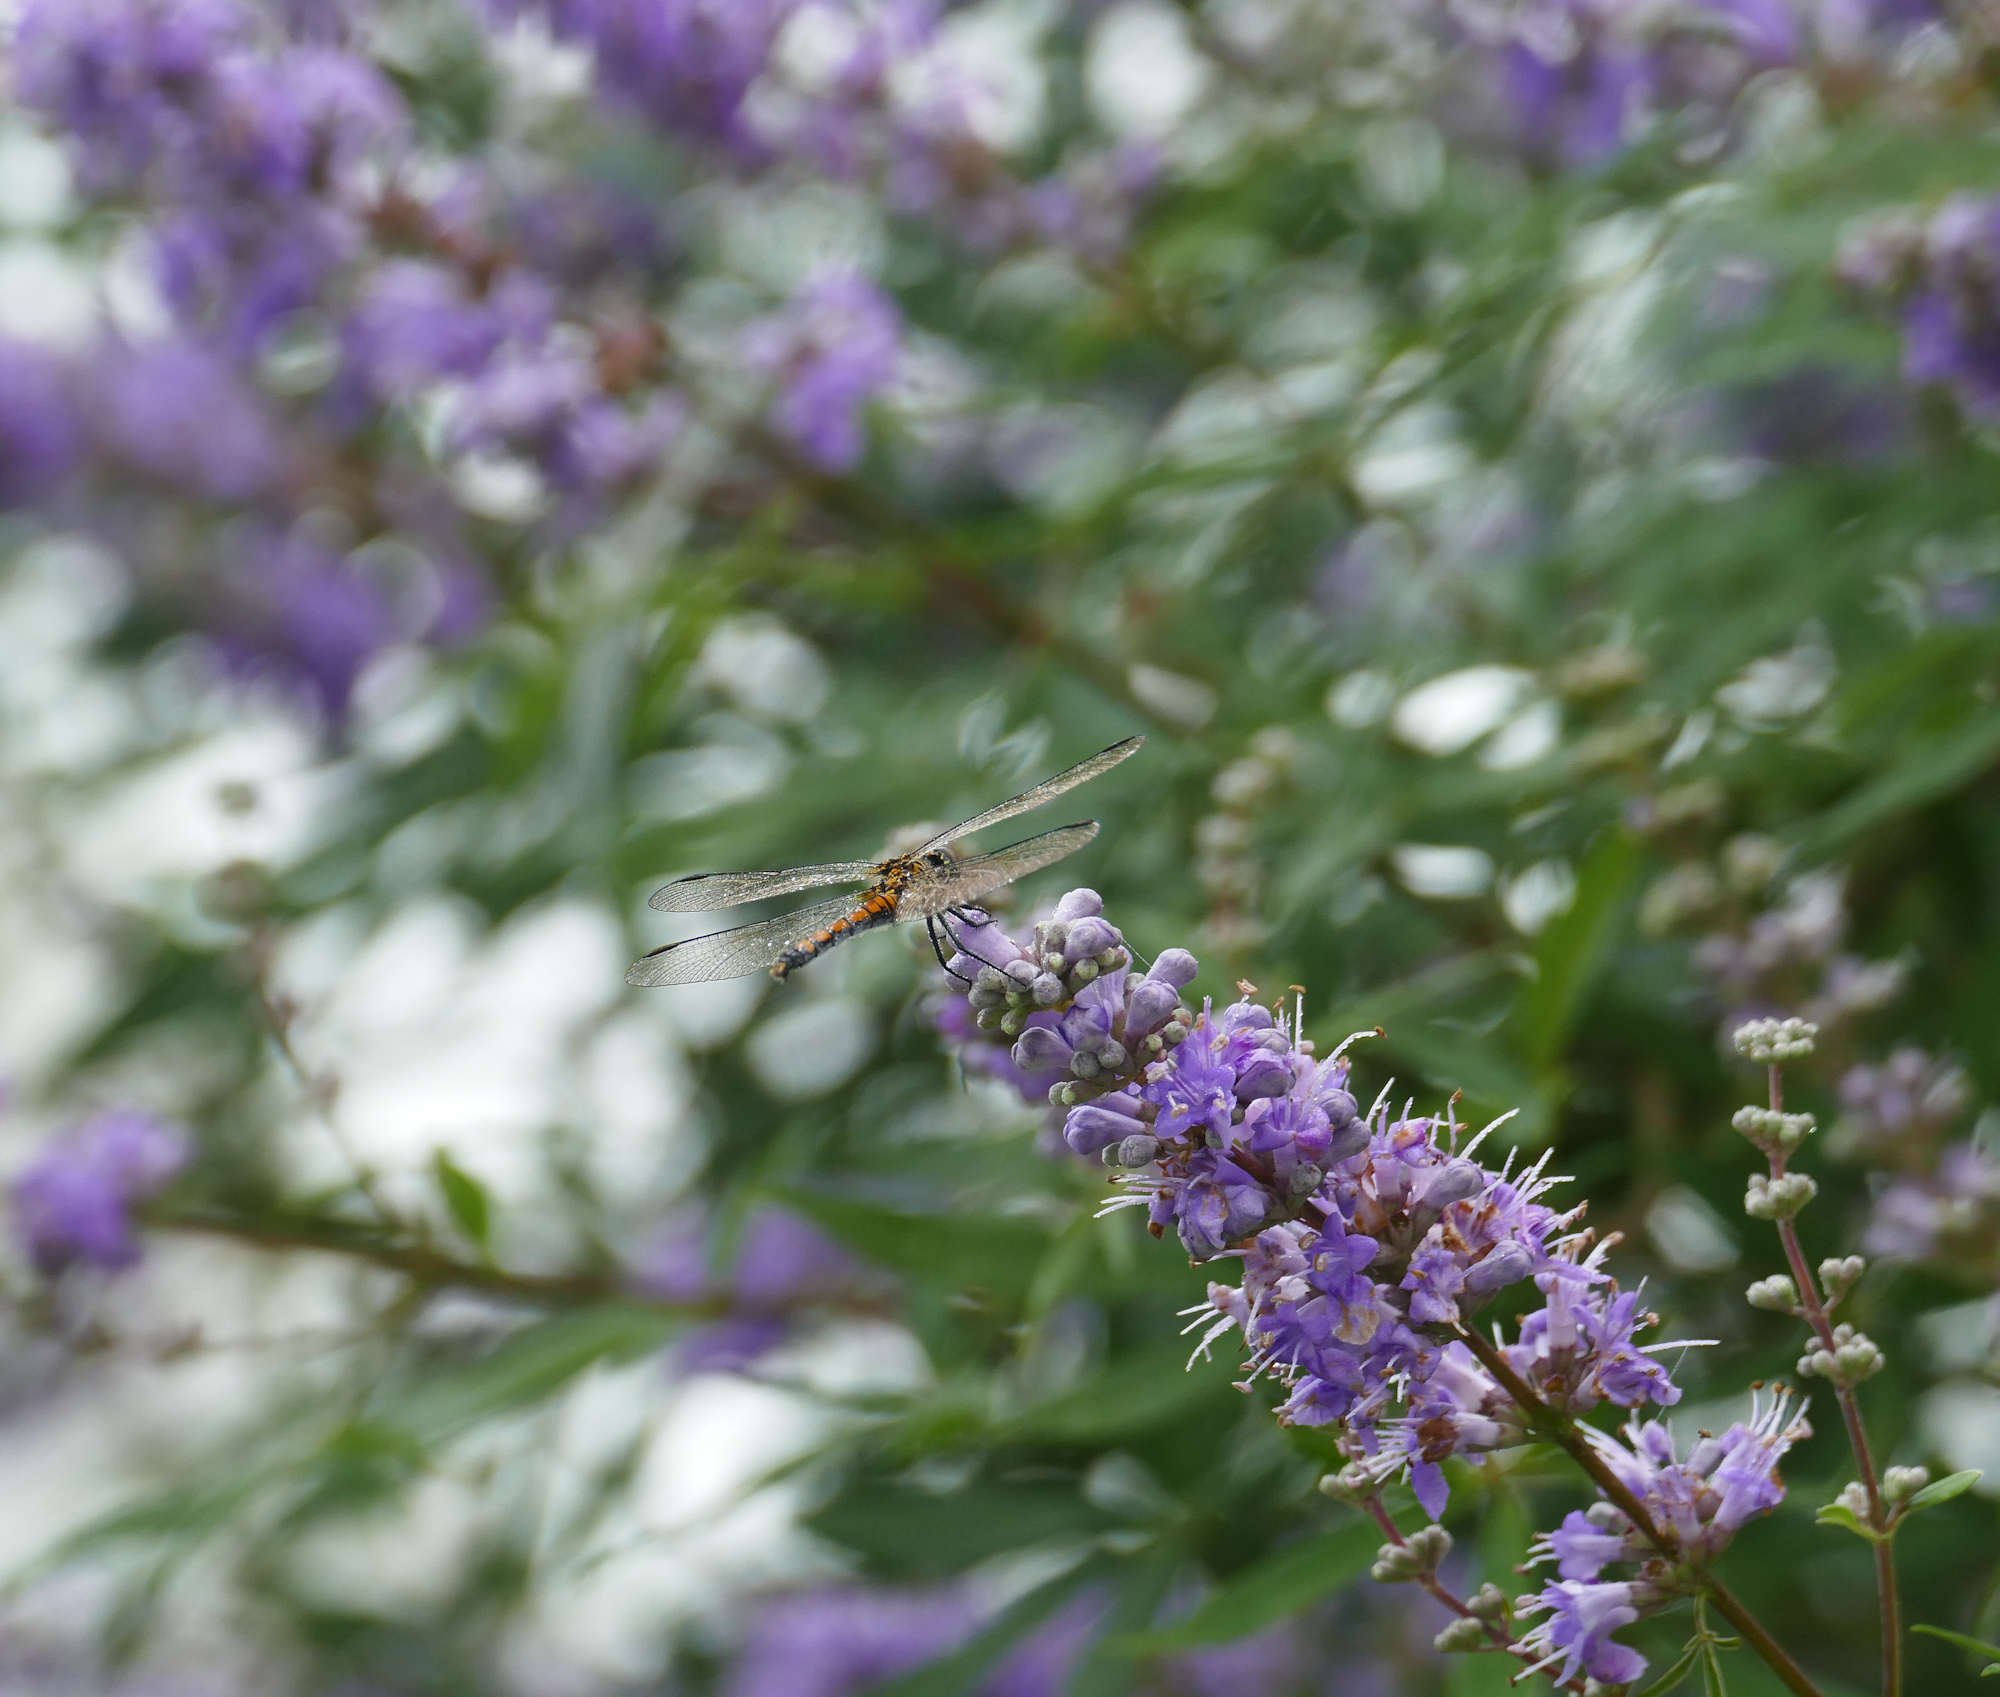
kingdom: Animalia
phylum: Arthropoda
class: Insecta
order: Odonata
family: Libellulidae
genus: Erythrodiplax
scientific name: Erythrodiplax berenice
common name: Seaside dragonlet
